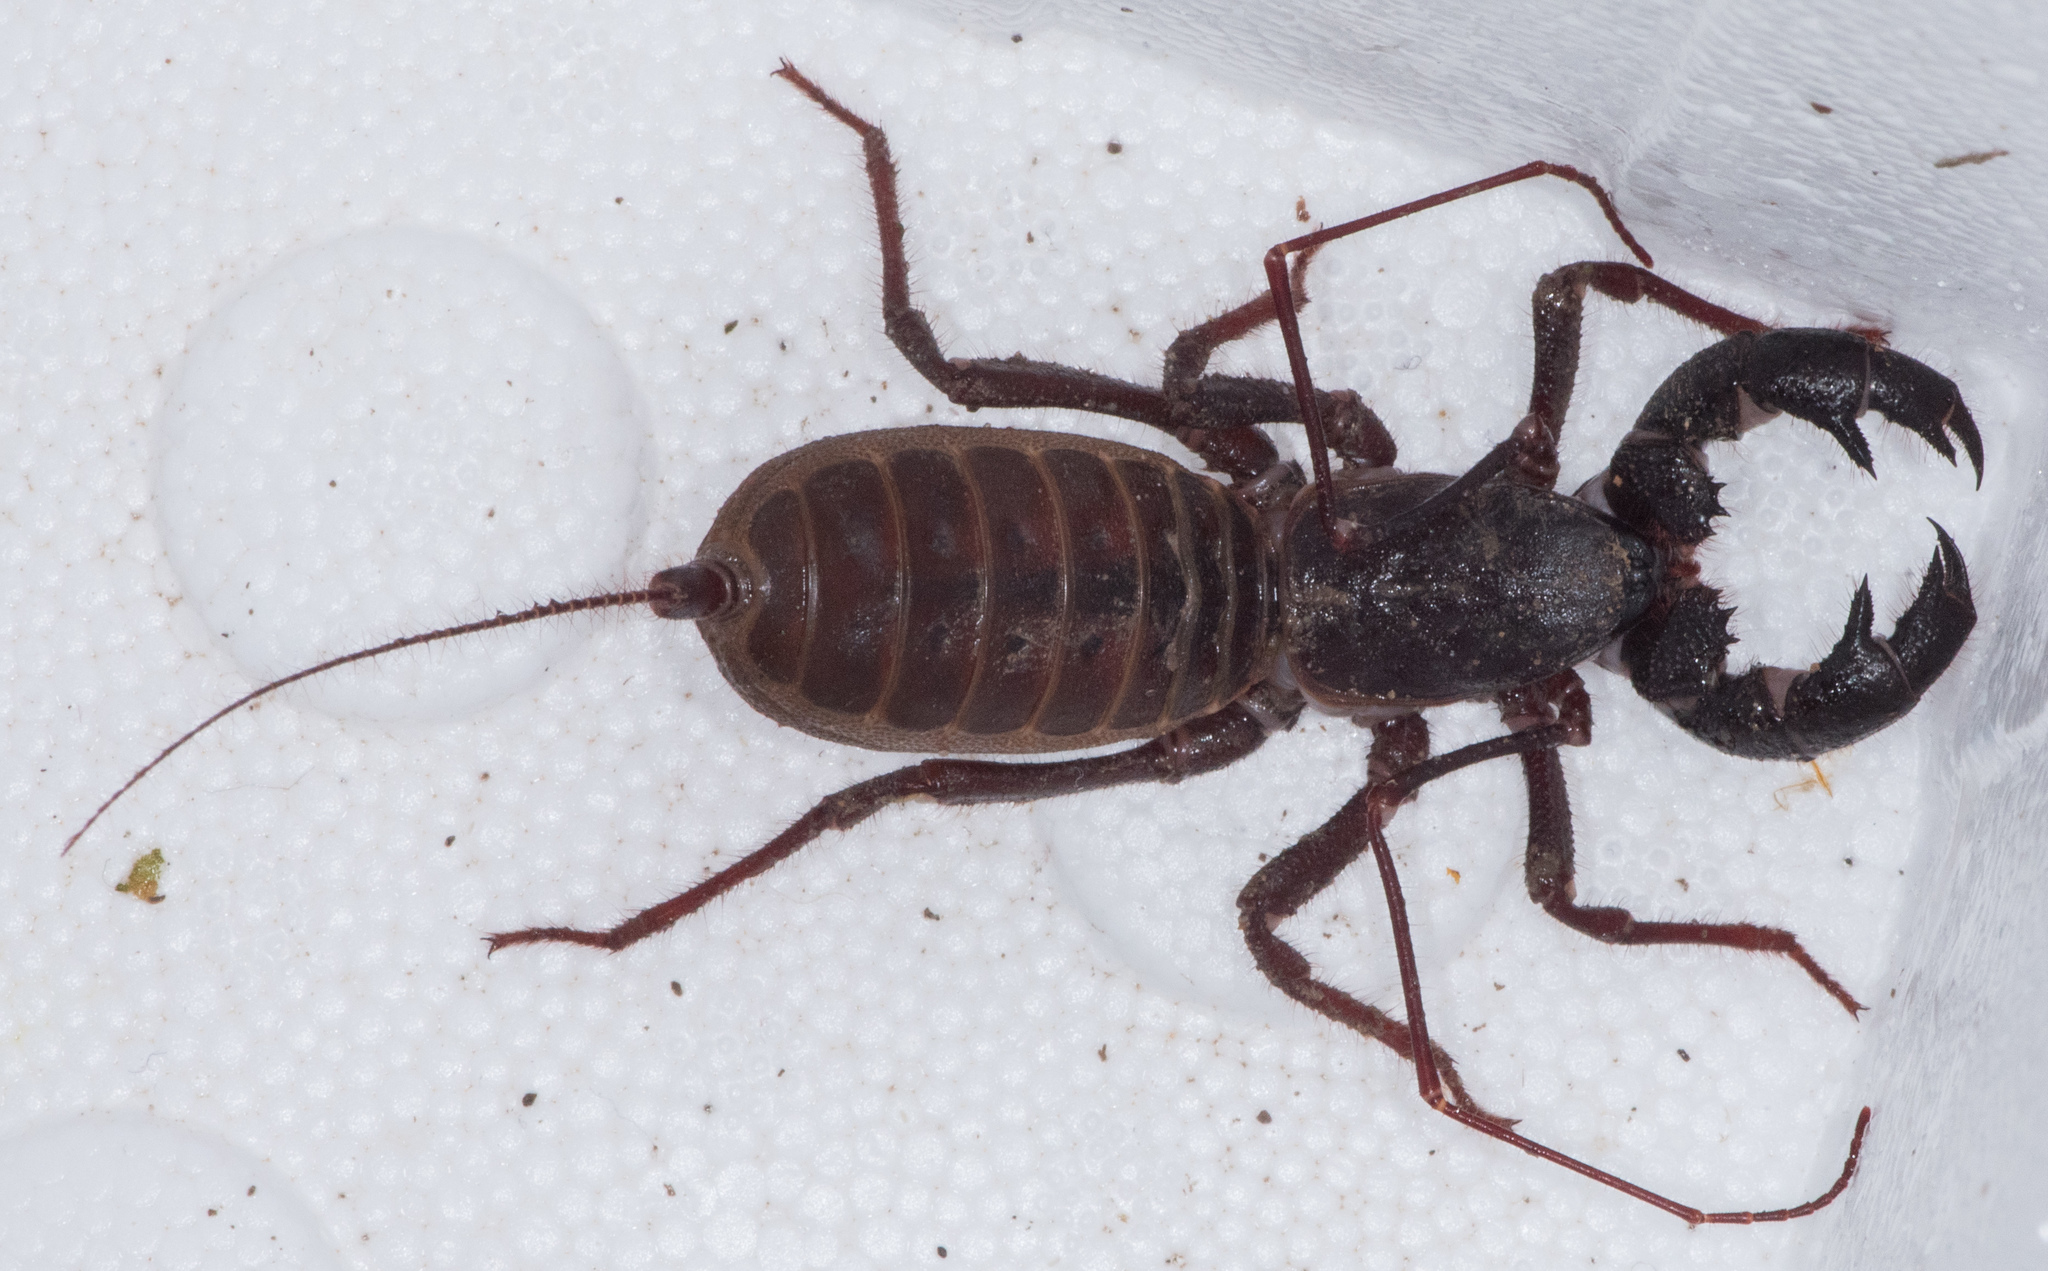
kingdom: Animalia
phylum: Arthropoda
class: Arachnida
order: Uropygi
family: Thelyphonidae
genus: Mastigoproctus
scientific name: Mastigoproctus tohono
